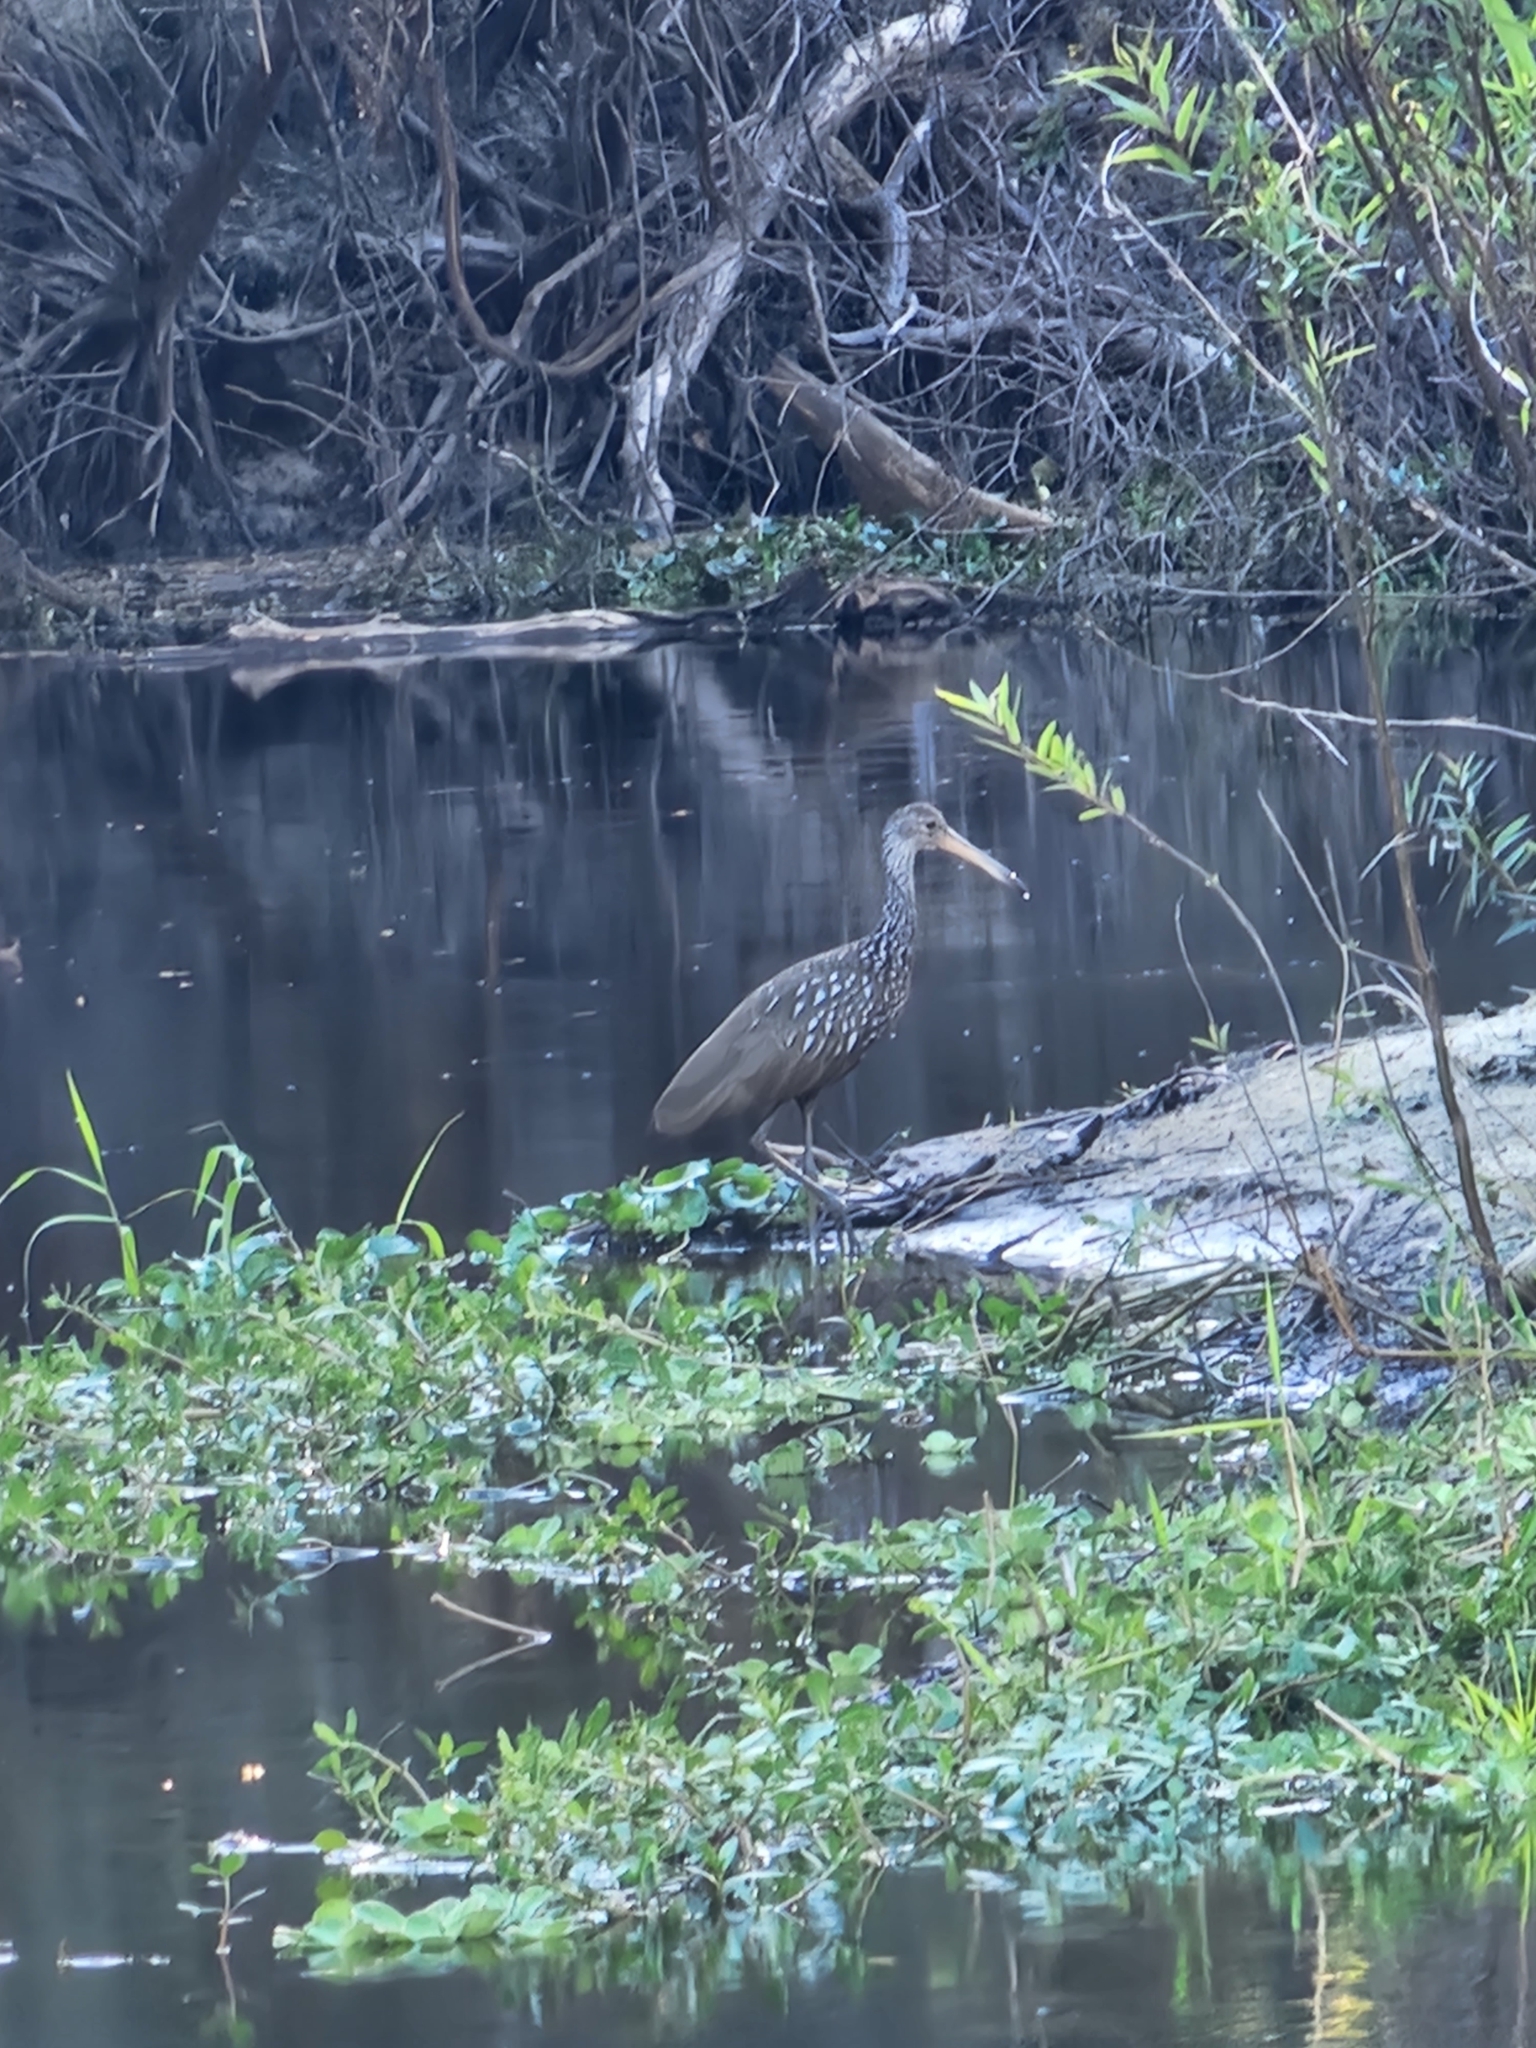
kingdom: Animalia
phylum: Chordata
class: Aves
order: Gruiformes
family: Aramidae
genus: Aramus
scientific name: Aramus guarauna
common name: Limpkin
